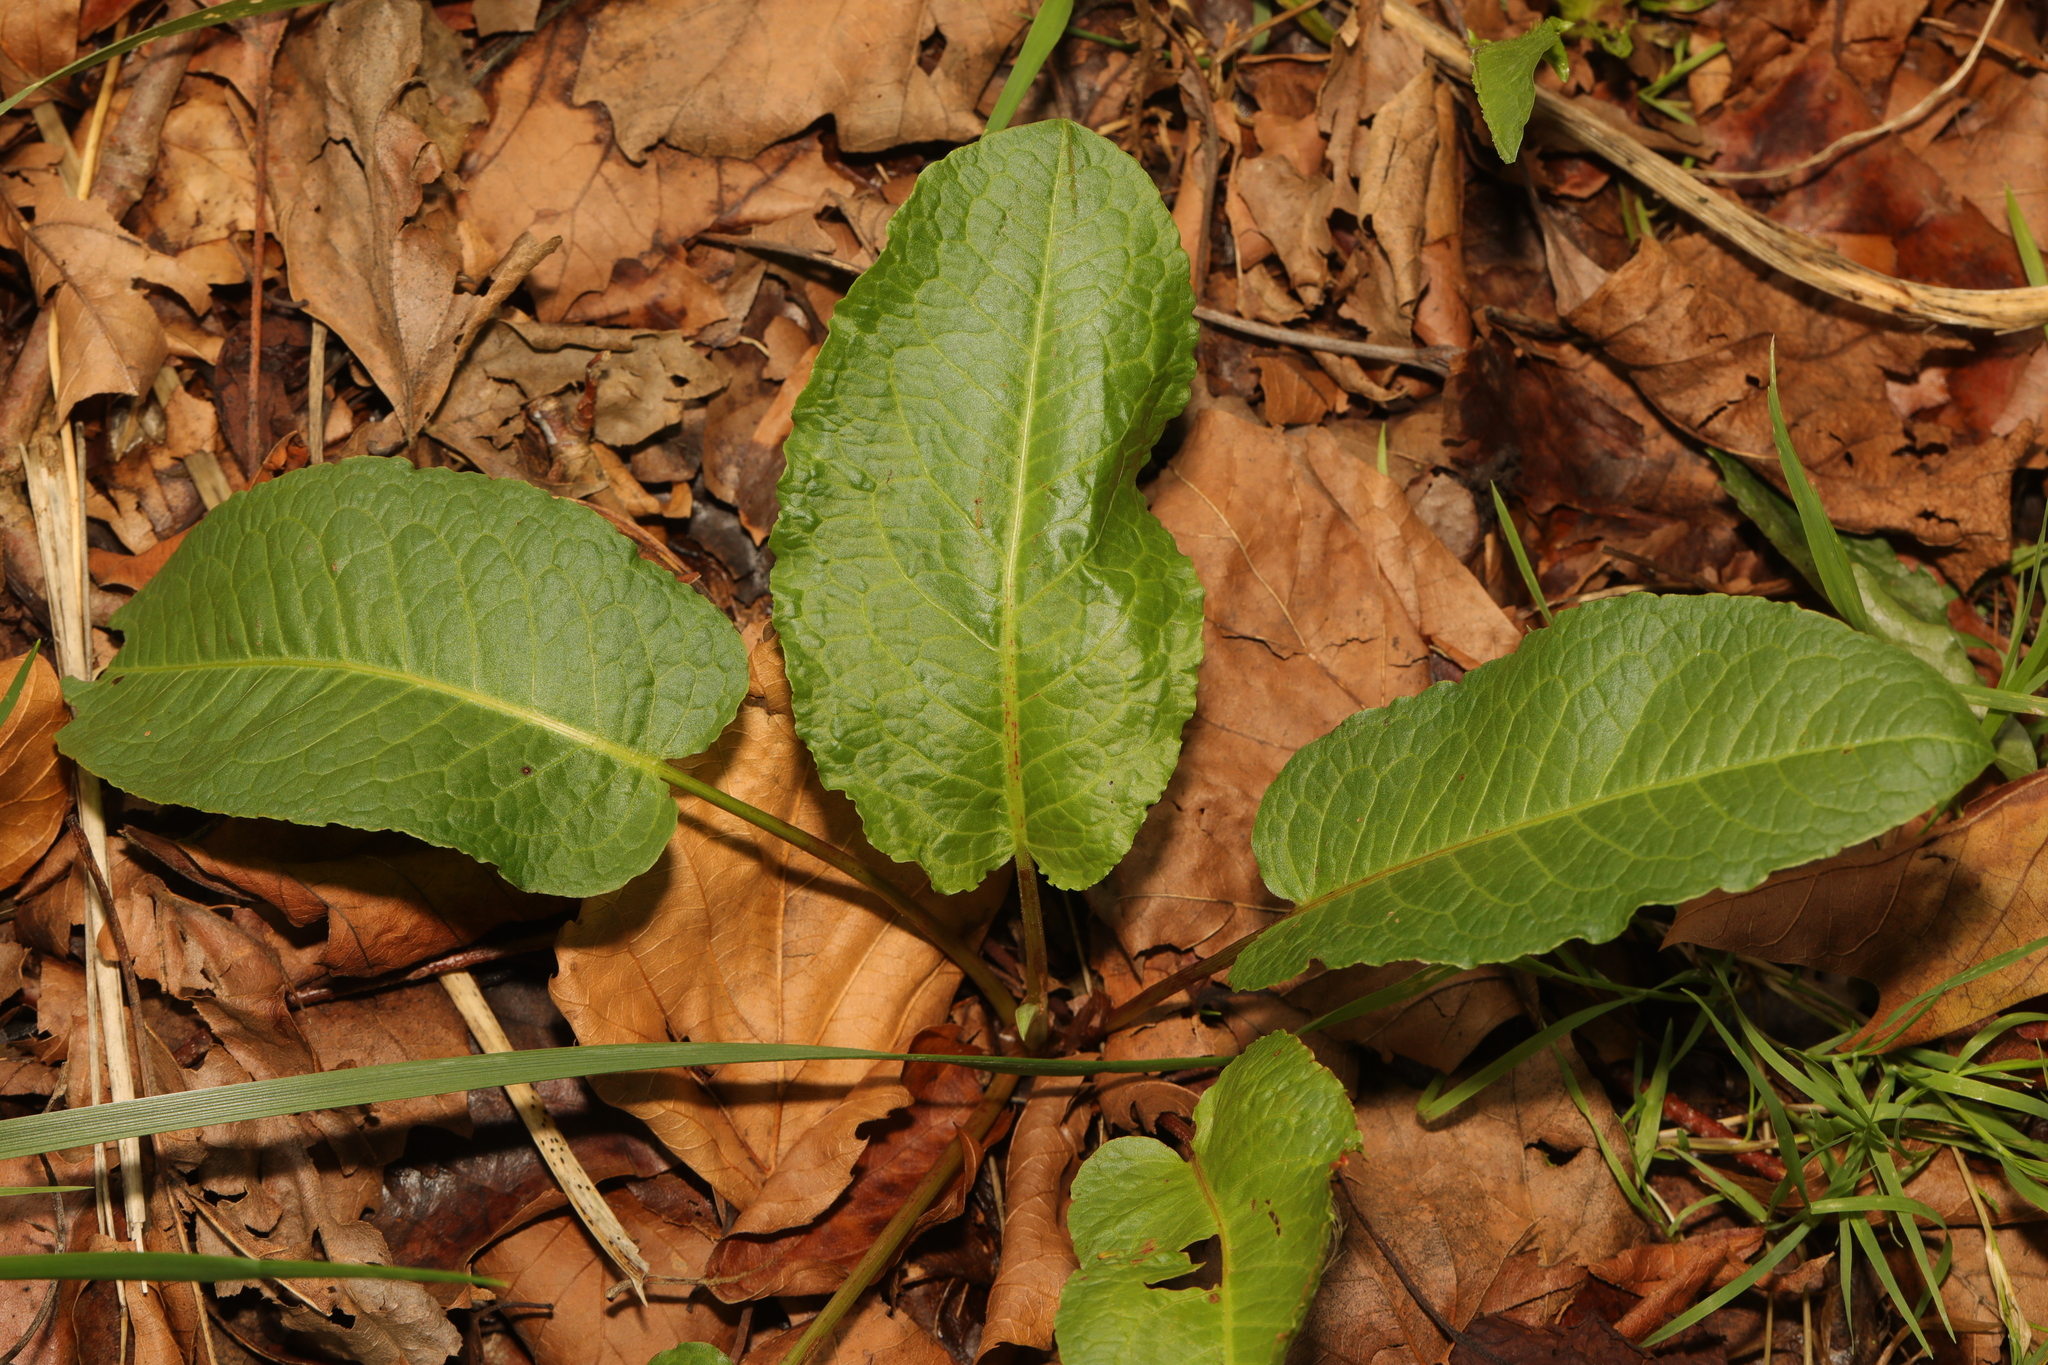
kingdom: Plantae
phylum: Tracheophyta
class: Magnoliopsida
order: Caryophyllales
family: Polygonaceae
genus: Rumex
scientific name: Rumex obtusifolius
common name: Bitter dock
